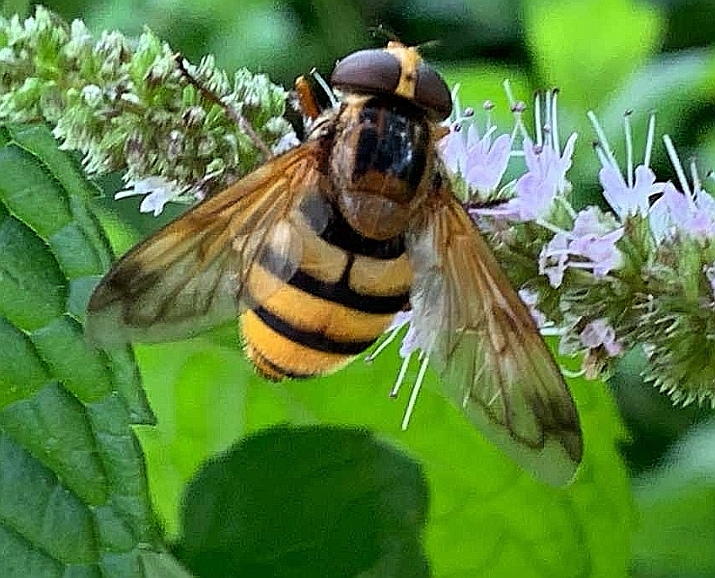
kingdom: Animalia
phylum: Arthropoda
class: Insecta
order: Diptera
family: Syrphidae
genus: Volucella
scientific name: Volucella inanis
